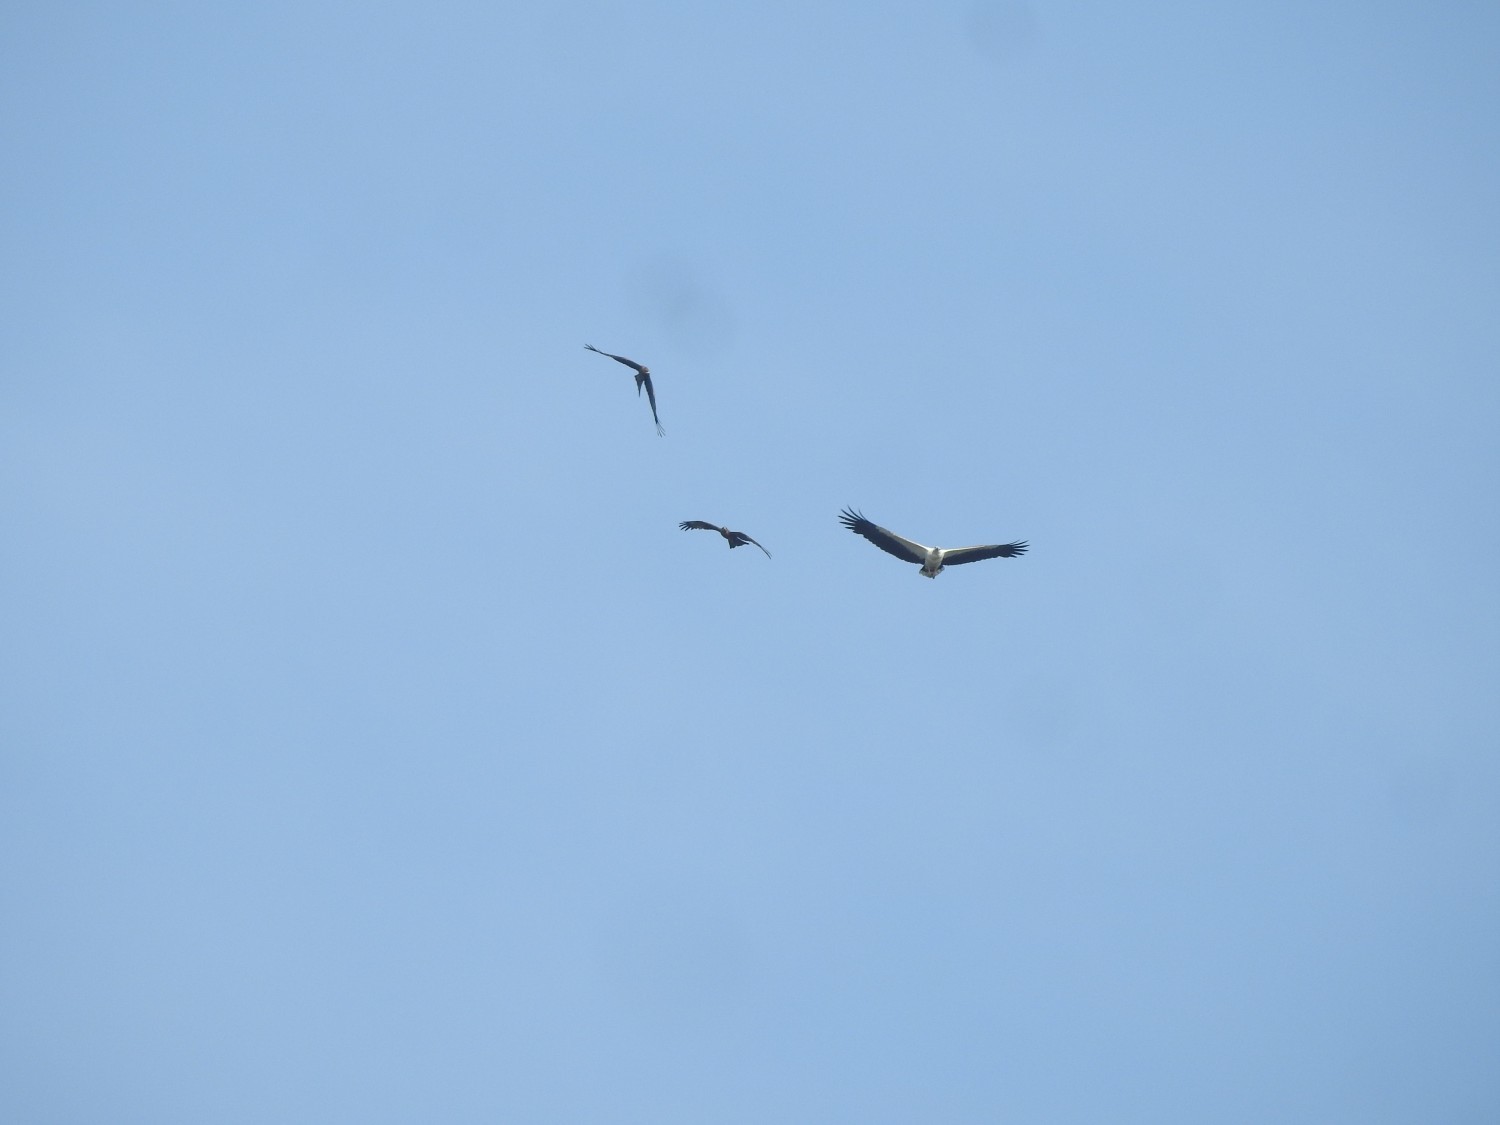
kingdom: Animalia
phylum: Chordata
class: Aves
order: Accipitriformes
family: Accipitridae
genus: Haliaeetus
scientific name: Haliaeetus leucogaster
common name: White-bellied sea eagle
